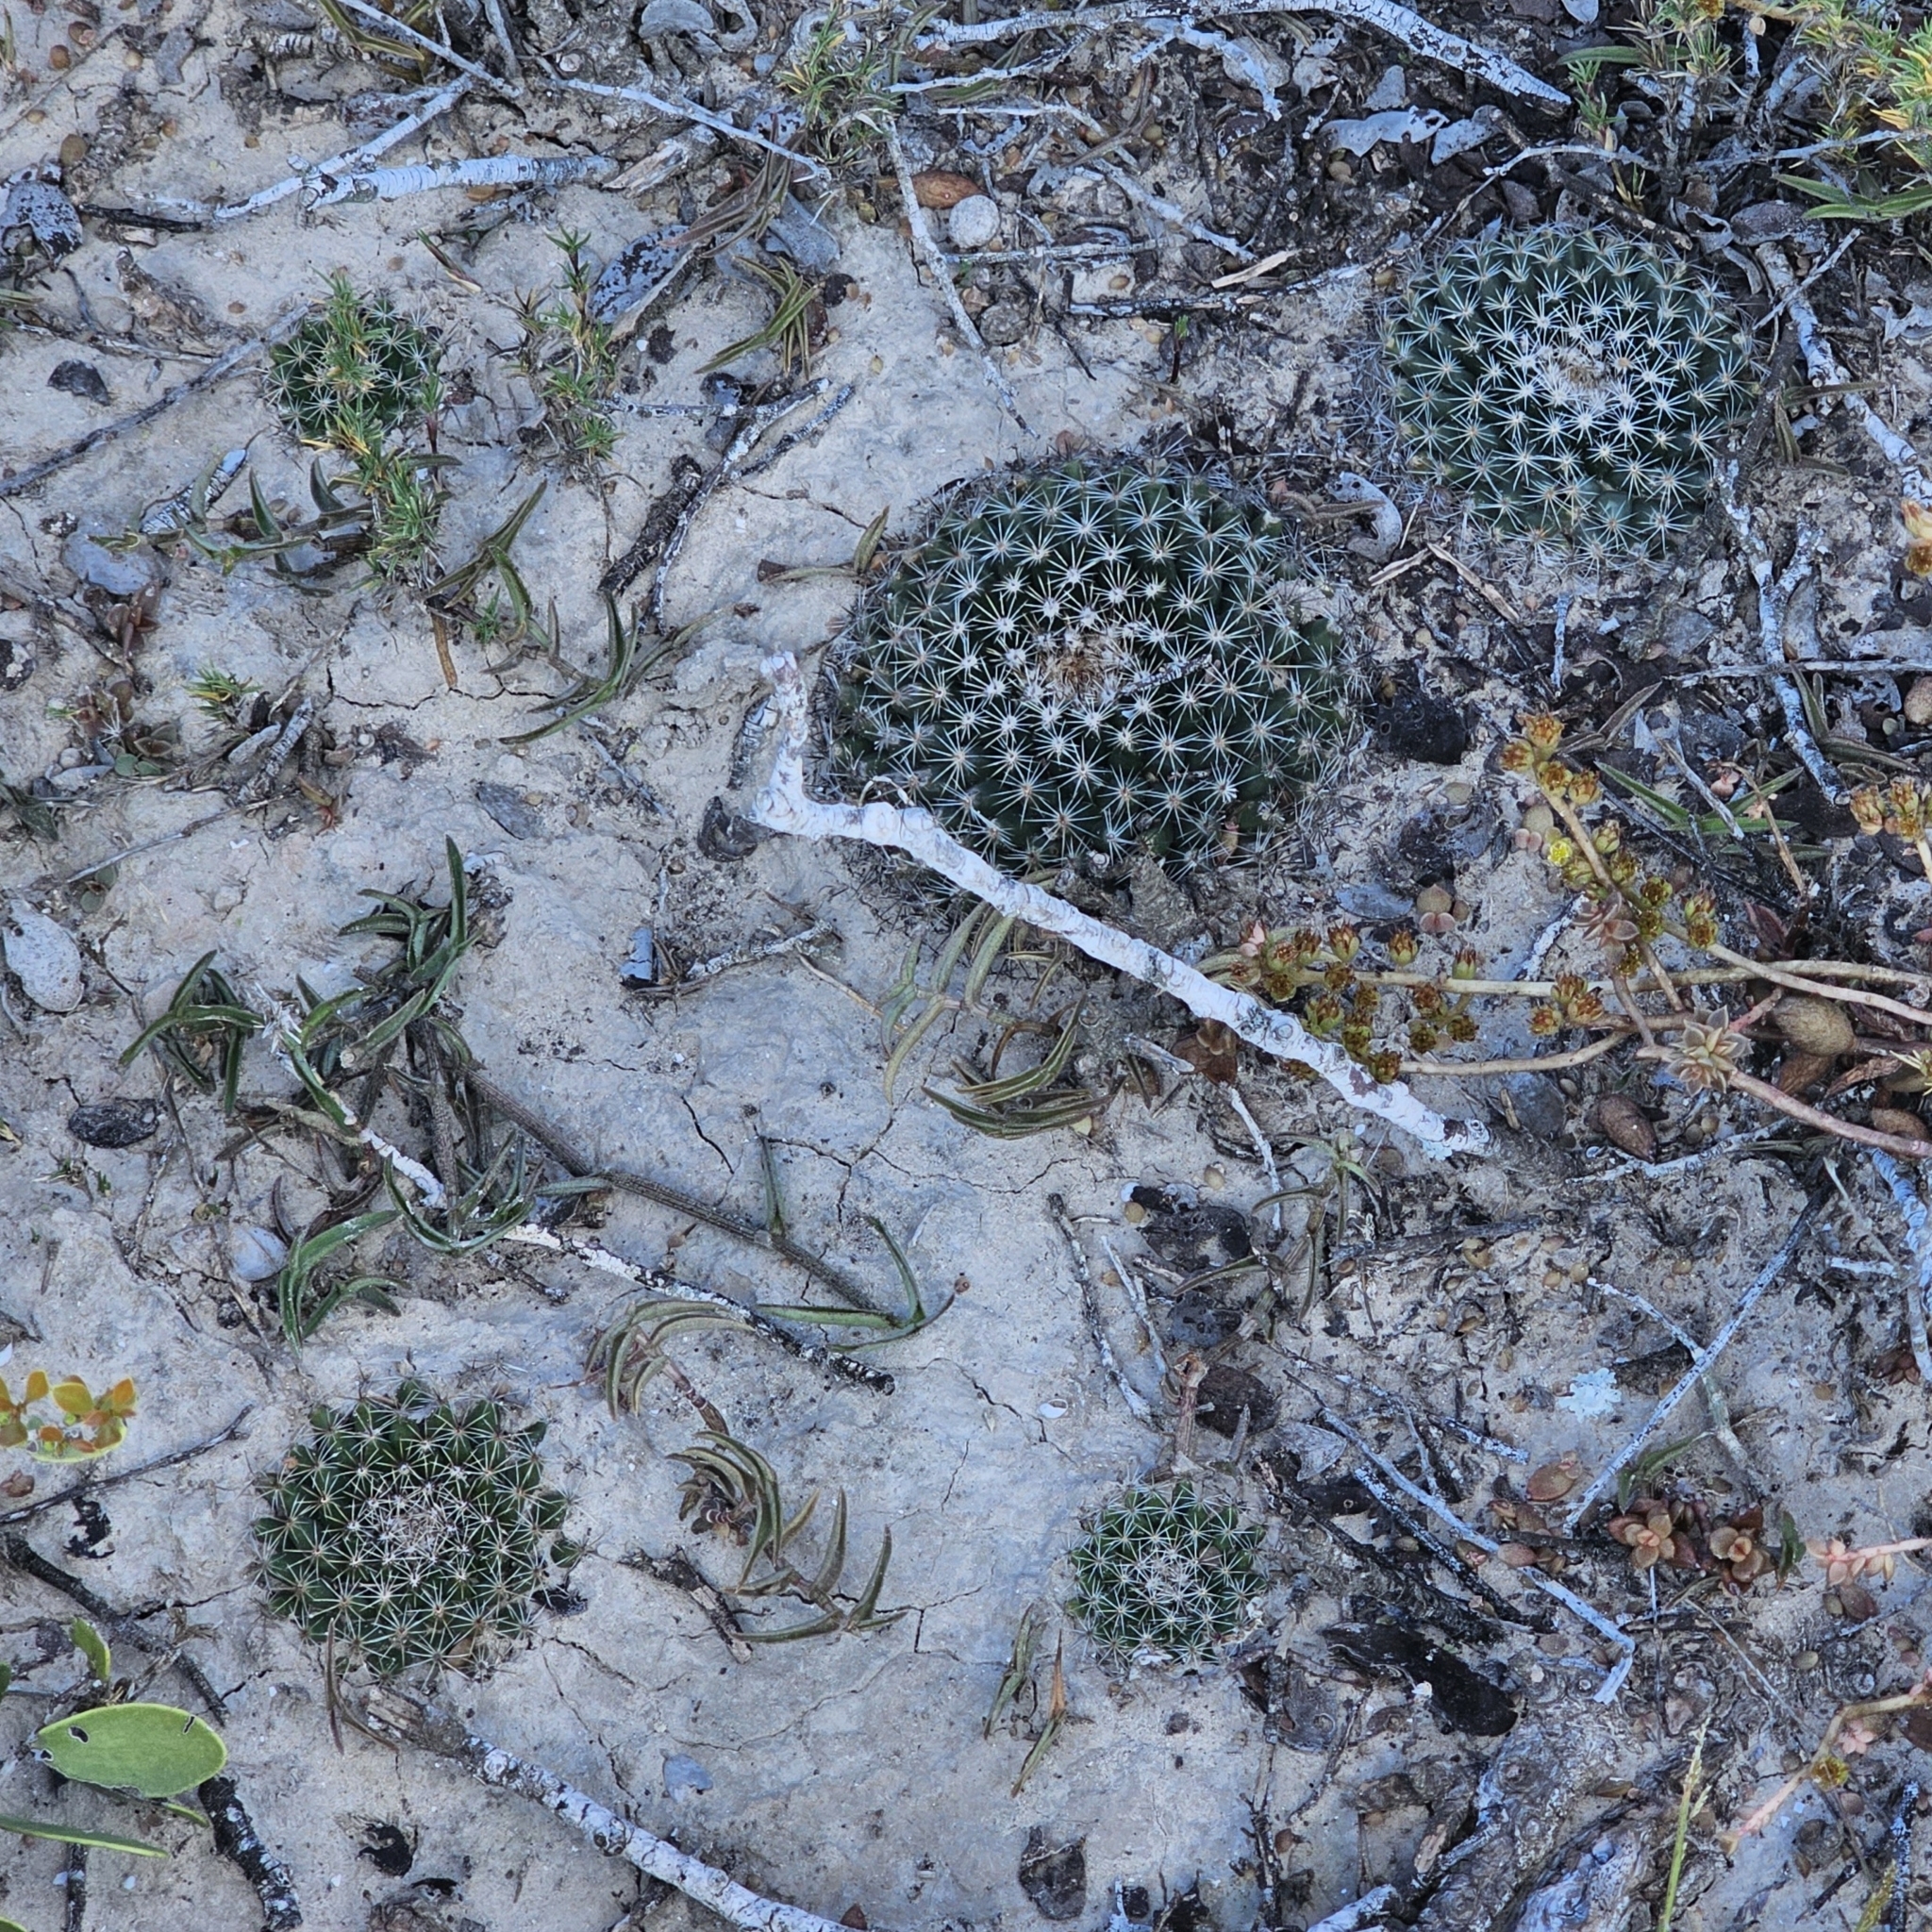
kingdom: Plantae
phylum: Tracheophyta
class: Magnoliopsida
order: Caryophyllales
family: Cactaceae
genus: Mammillaria
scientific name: Mammillaria heyderi
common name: Little nipple cactus
